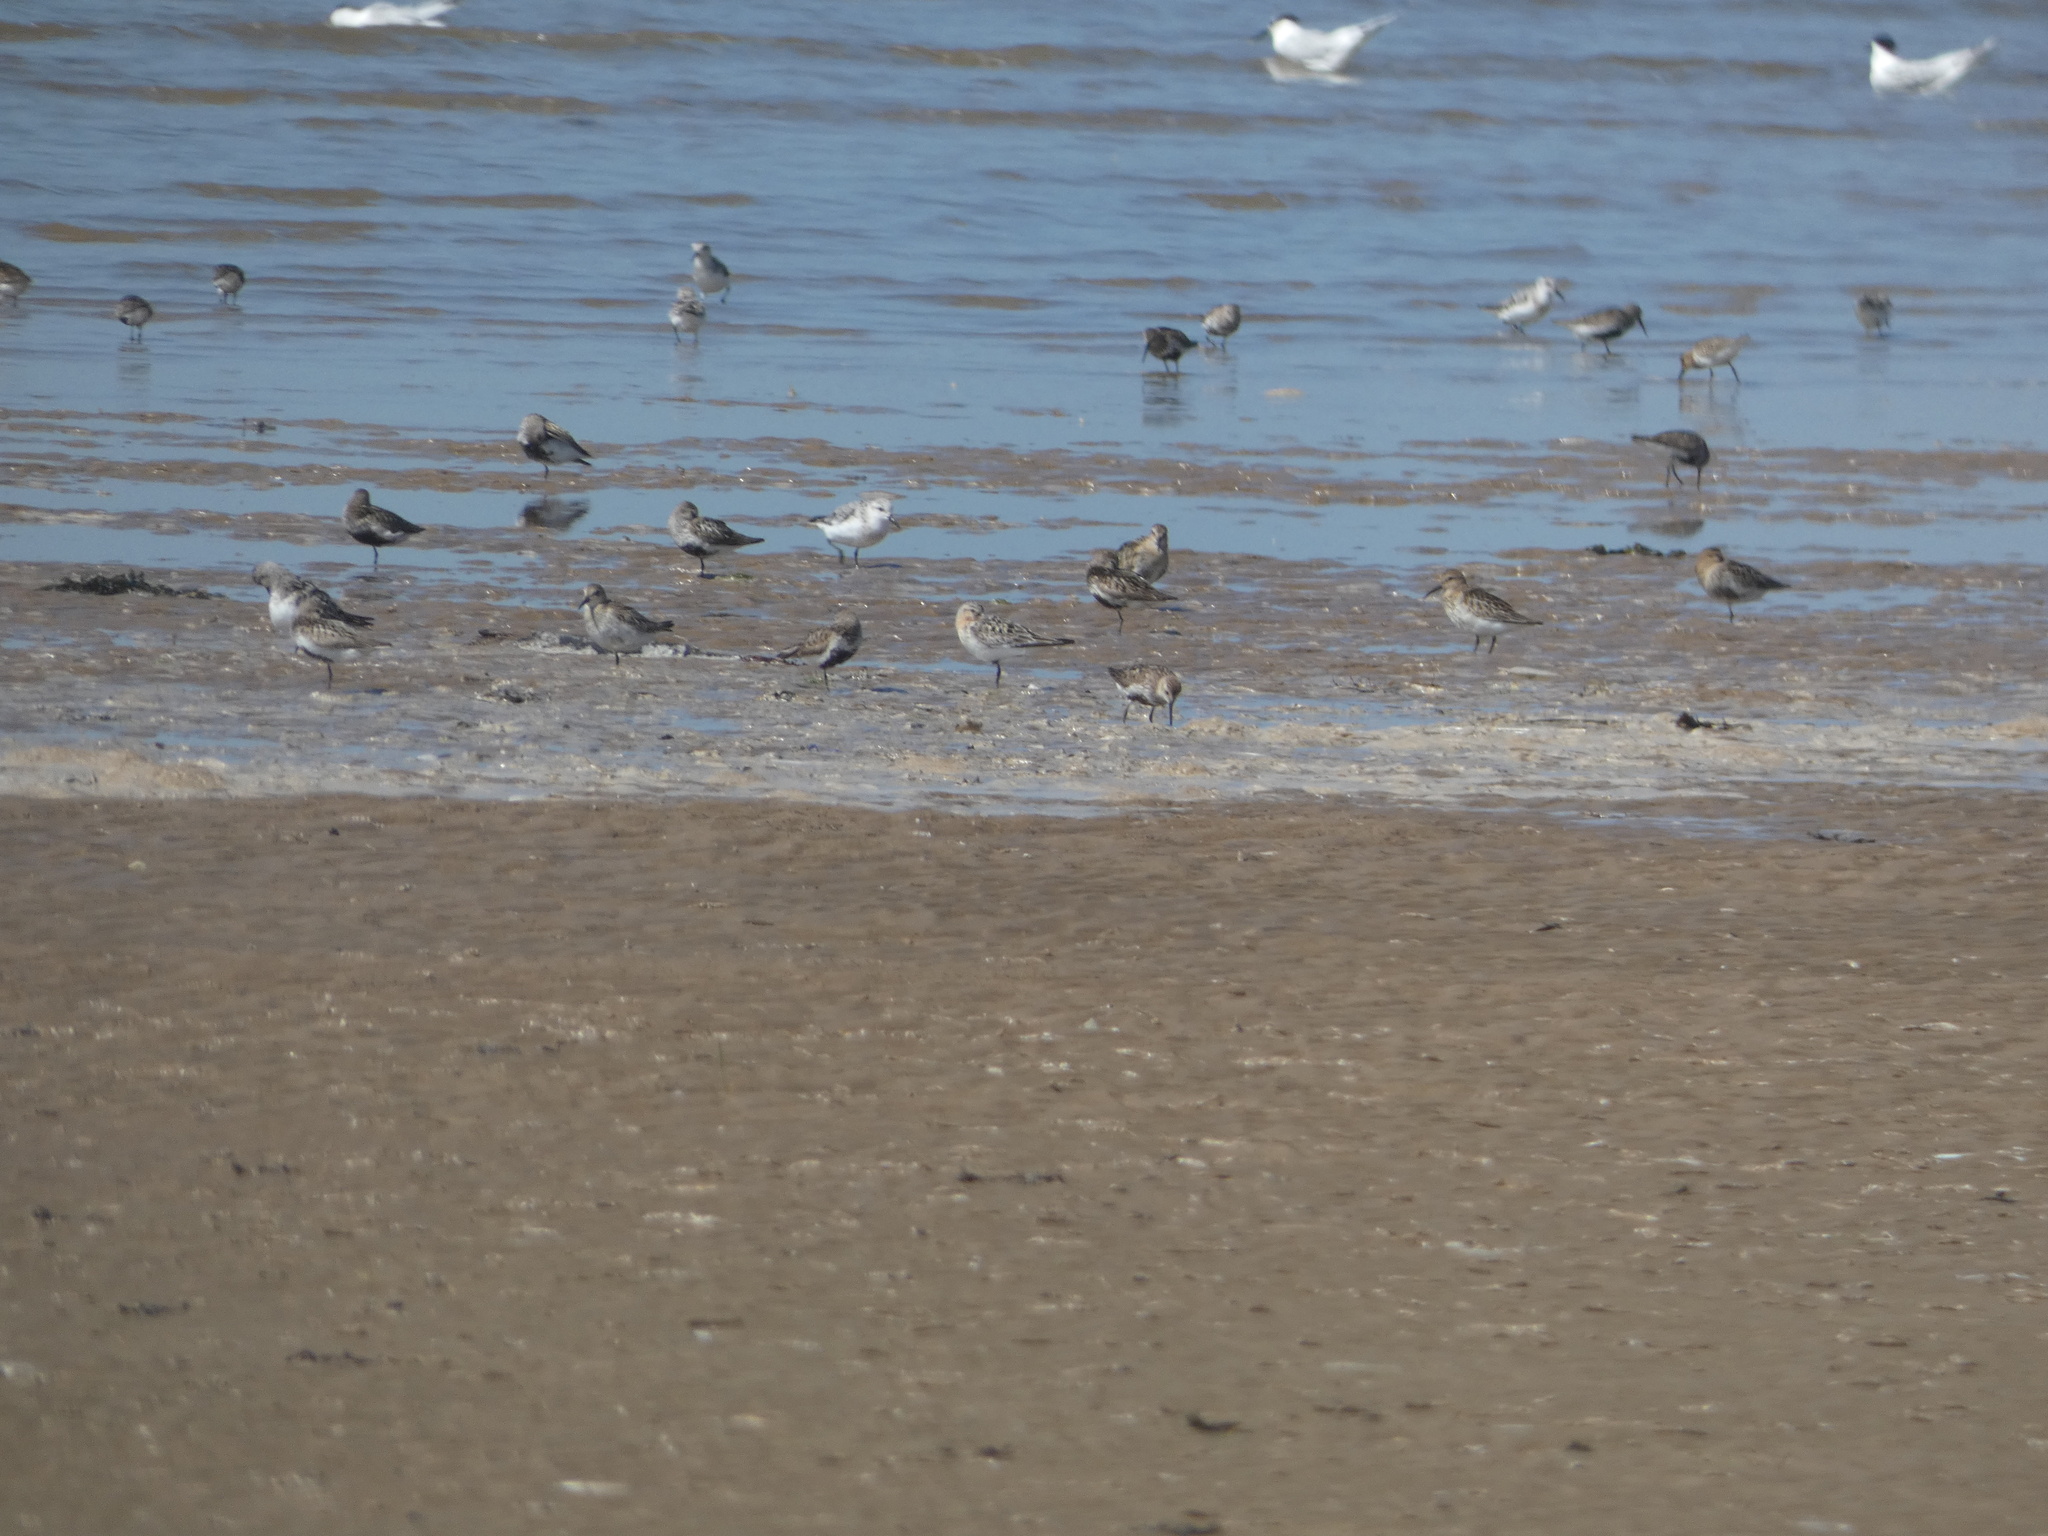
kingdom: Animalia
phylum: Chordata
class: Aves
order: Charadriiformes
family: Scolopacidae
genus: Calidris
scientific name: Calidris alba
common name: Sanderling
